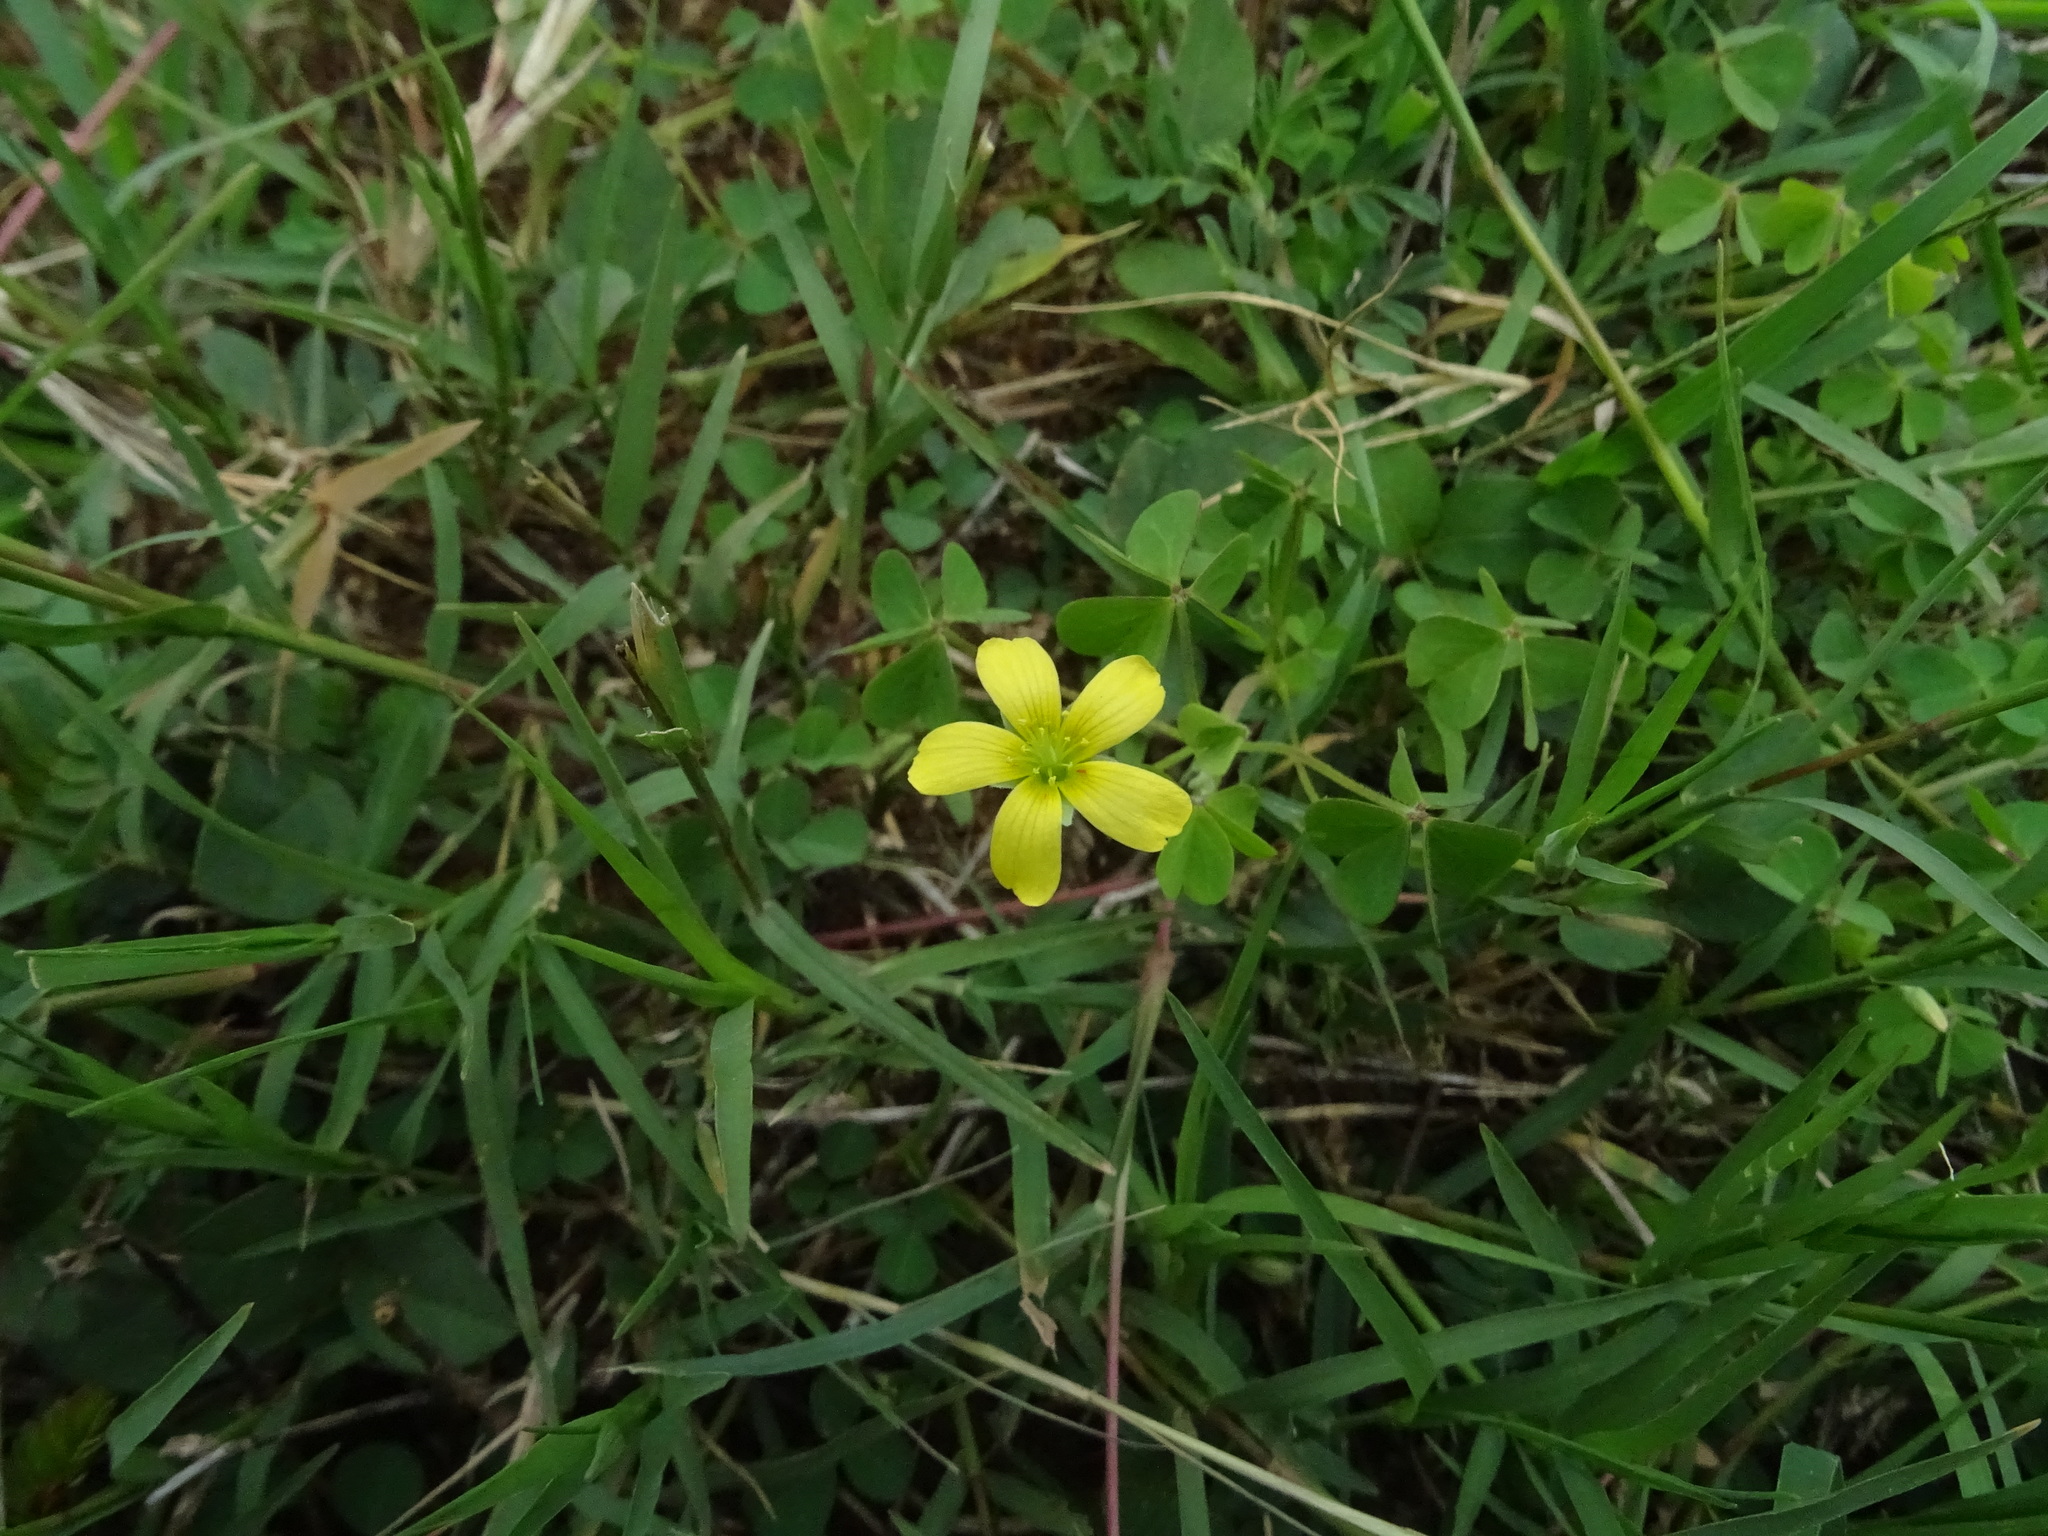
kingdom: Plantae
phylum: Tracheophyta
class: Magnoliopsida
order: Oxalidales
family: Oxalidaceae
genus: Oxalis
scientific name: Oxalis corniculata
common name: Procumbent yellow-sorrel
